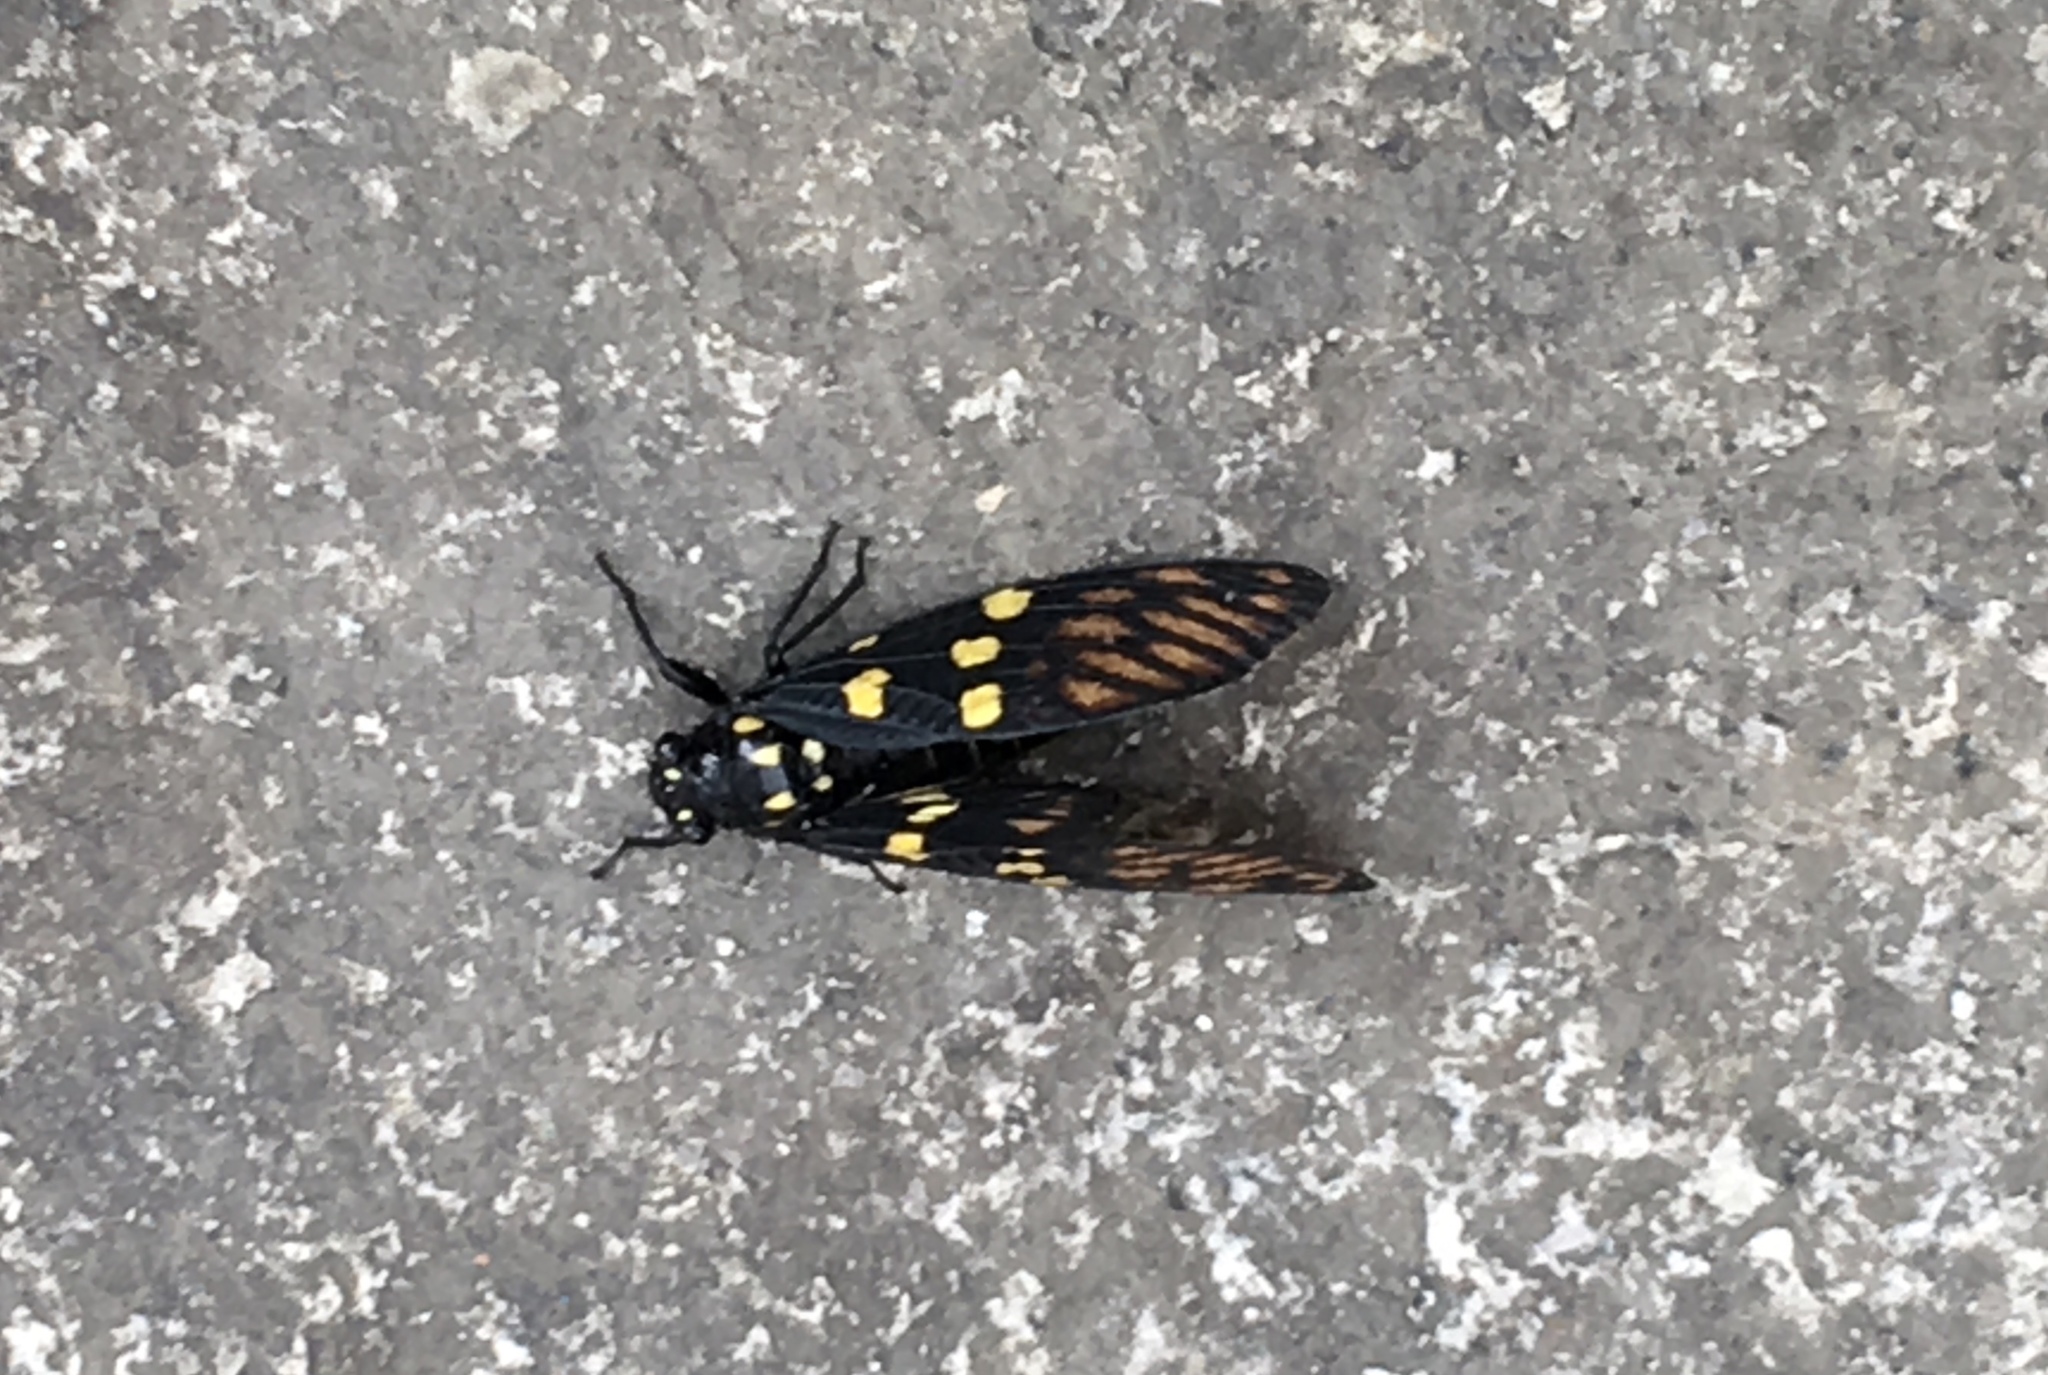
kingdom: Animalia
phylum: Arthropoda
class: Insecta
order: Hemiptera
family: Cicadidae
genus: Gaeana
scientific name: Gaeana maculata
